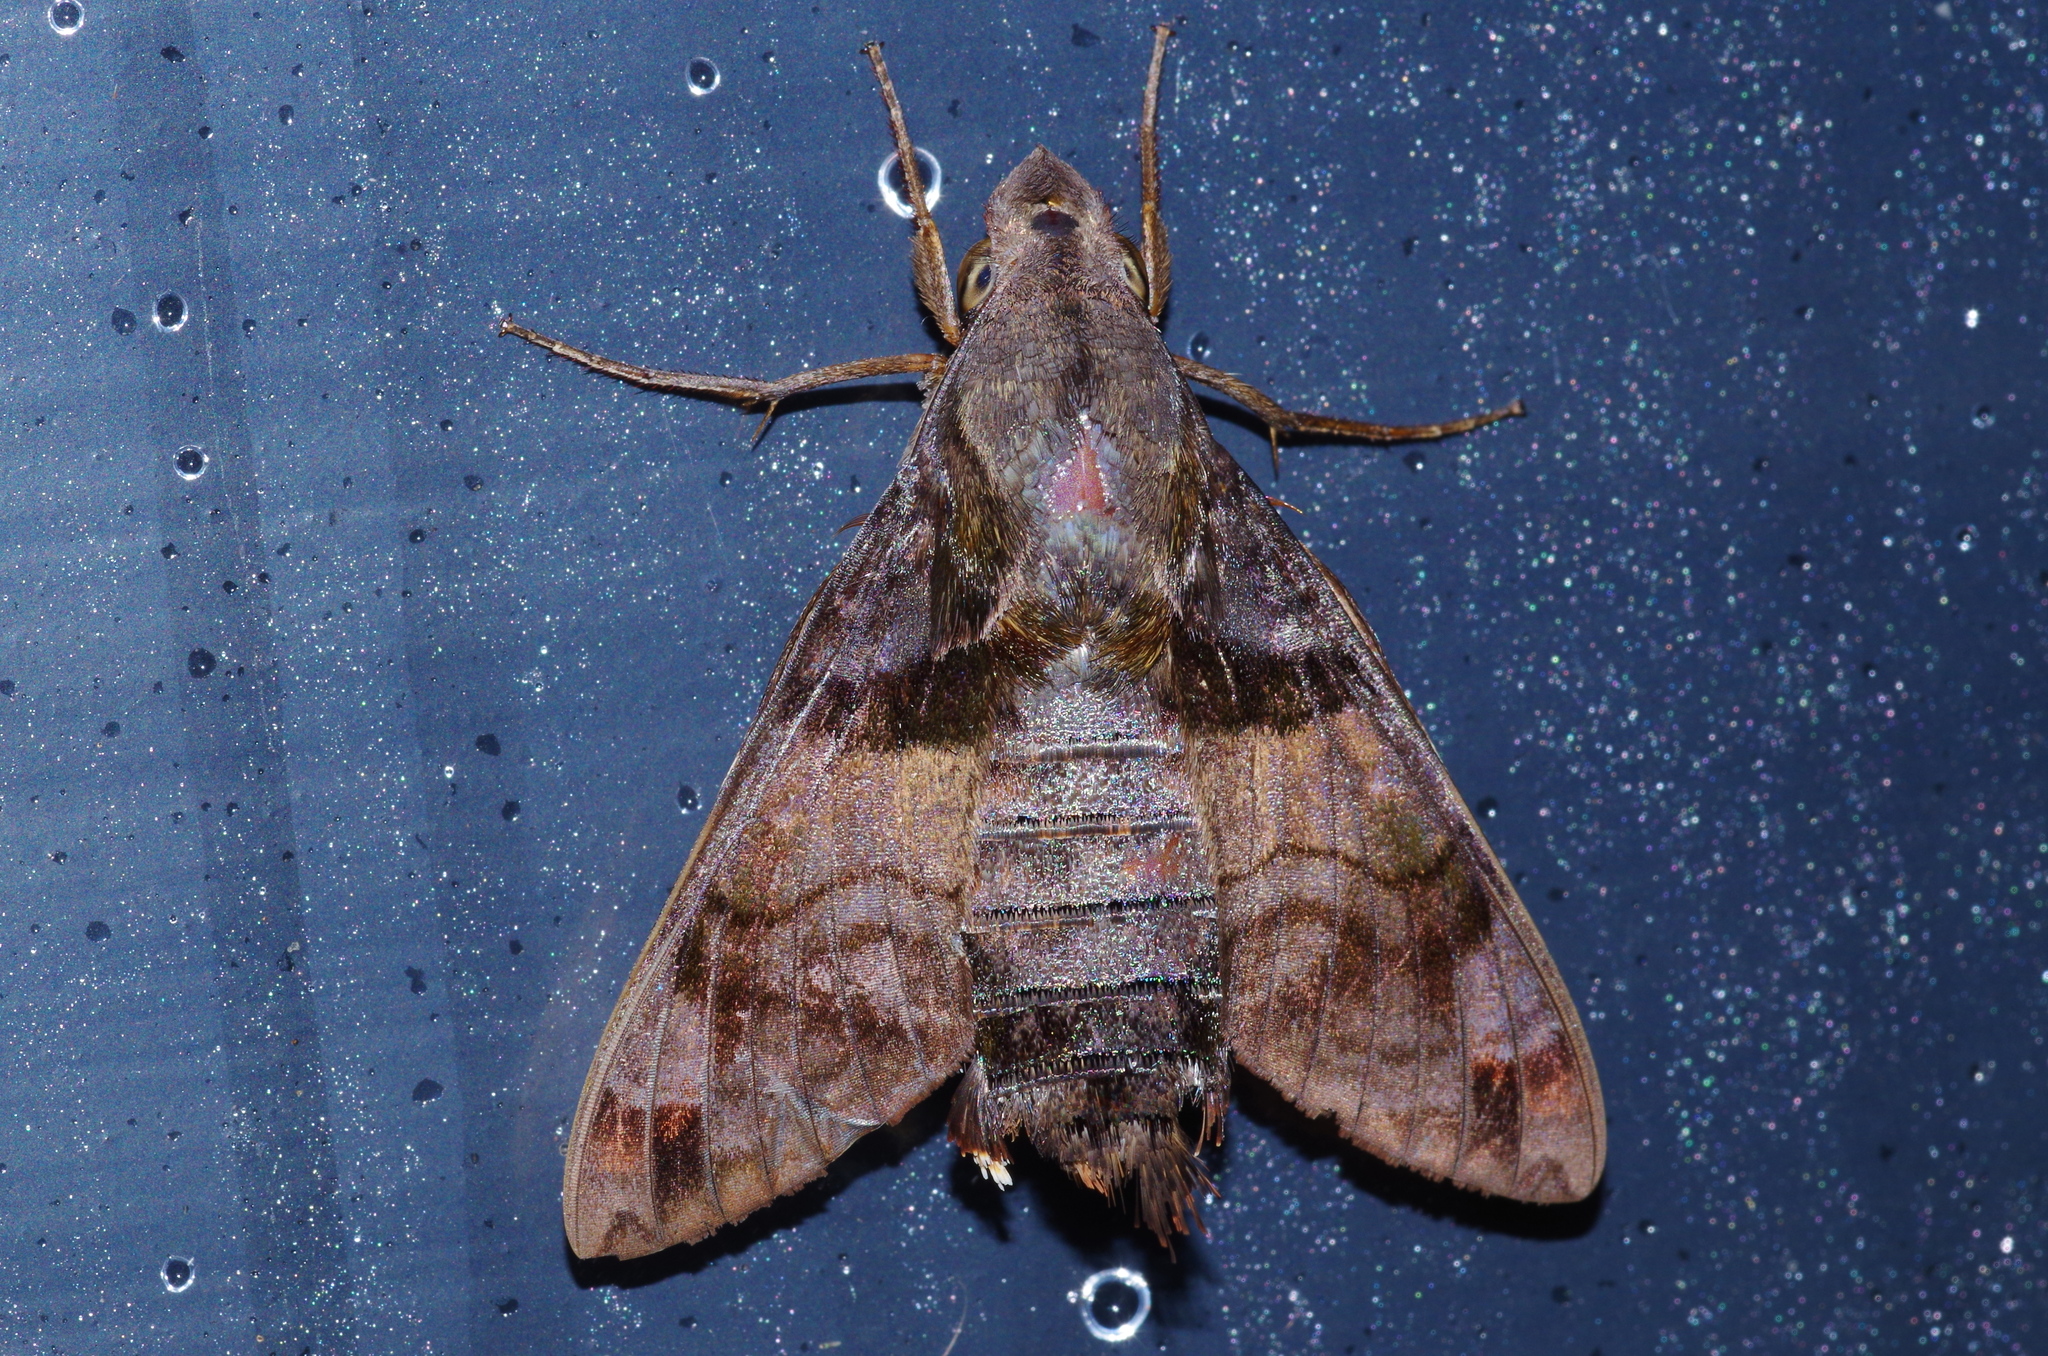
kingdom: Animalia
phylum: Arthropoda
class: Insecta
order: Lepidoptera
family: Sphingidae
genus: Macroglossum
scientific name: Macroglossum pyrrhosticta
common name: Hummingbird hawk moth
